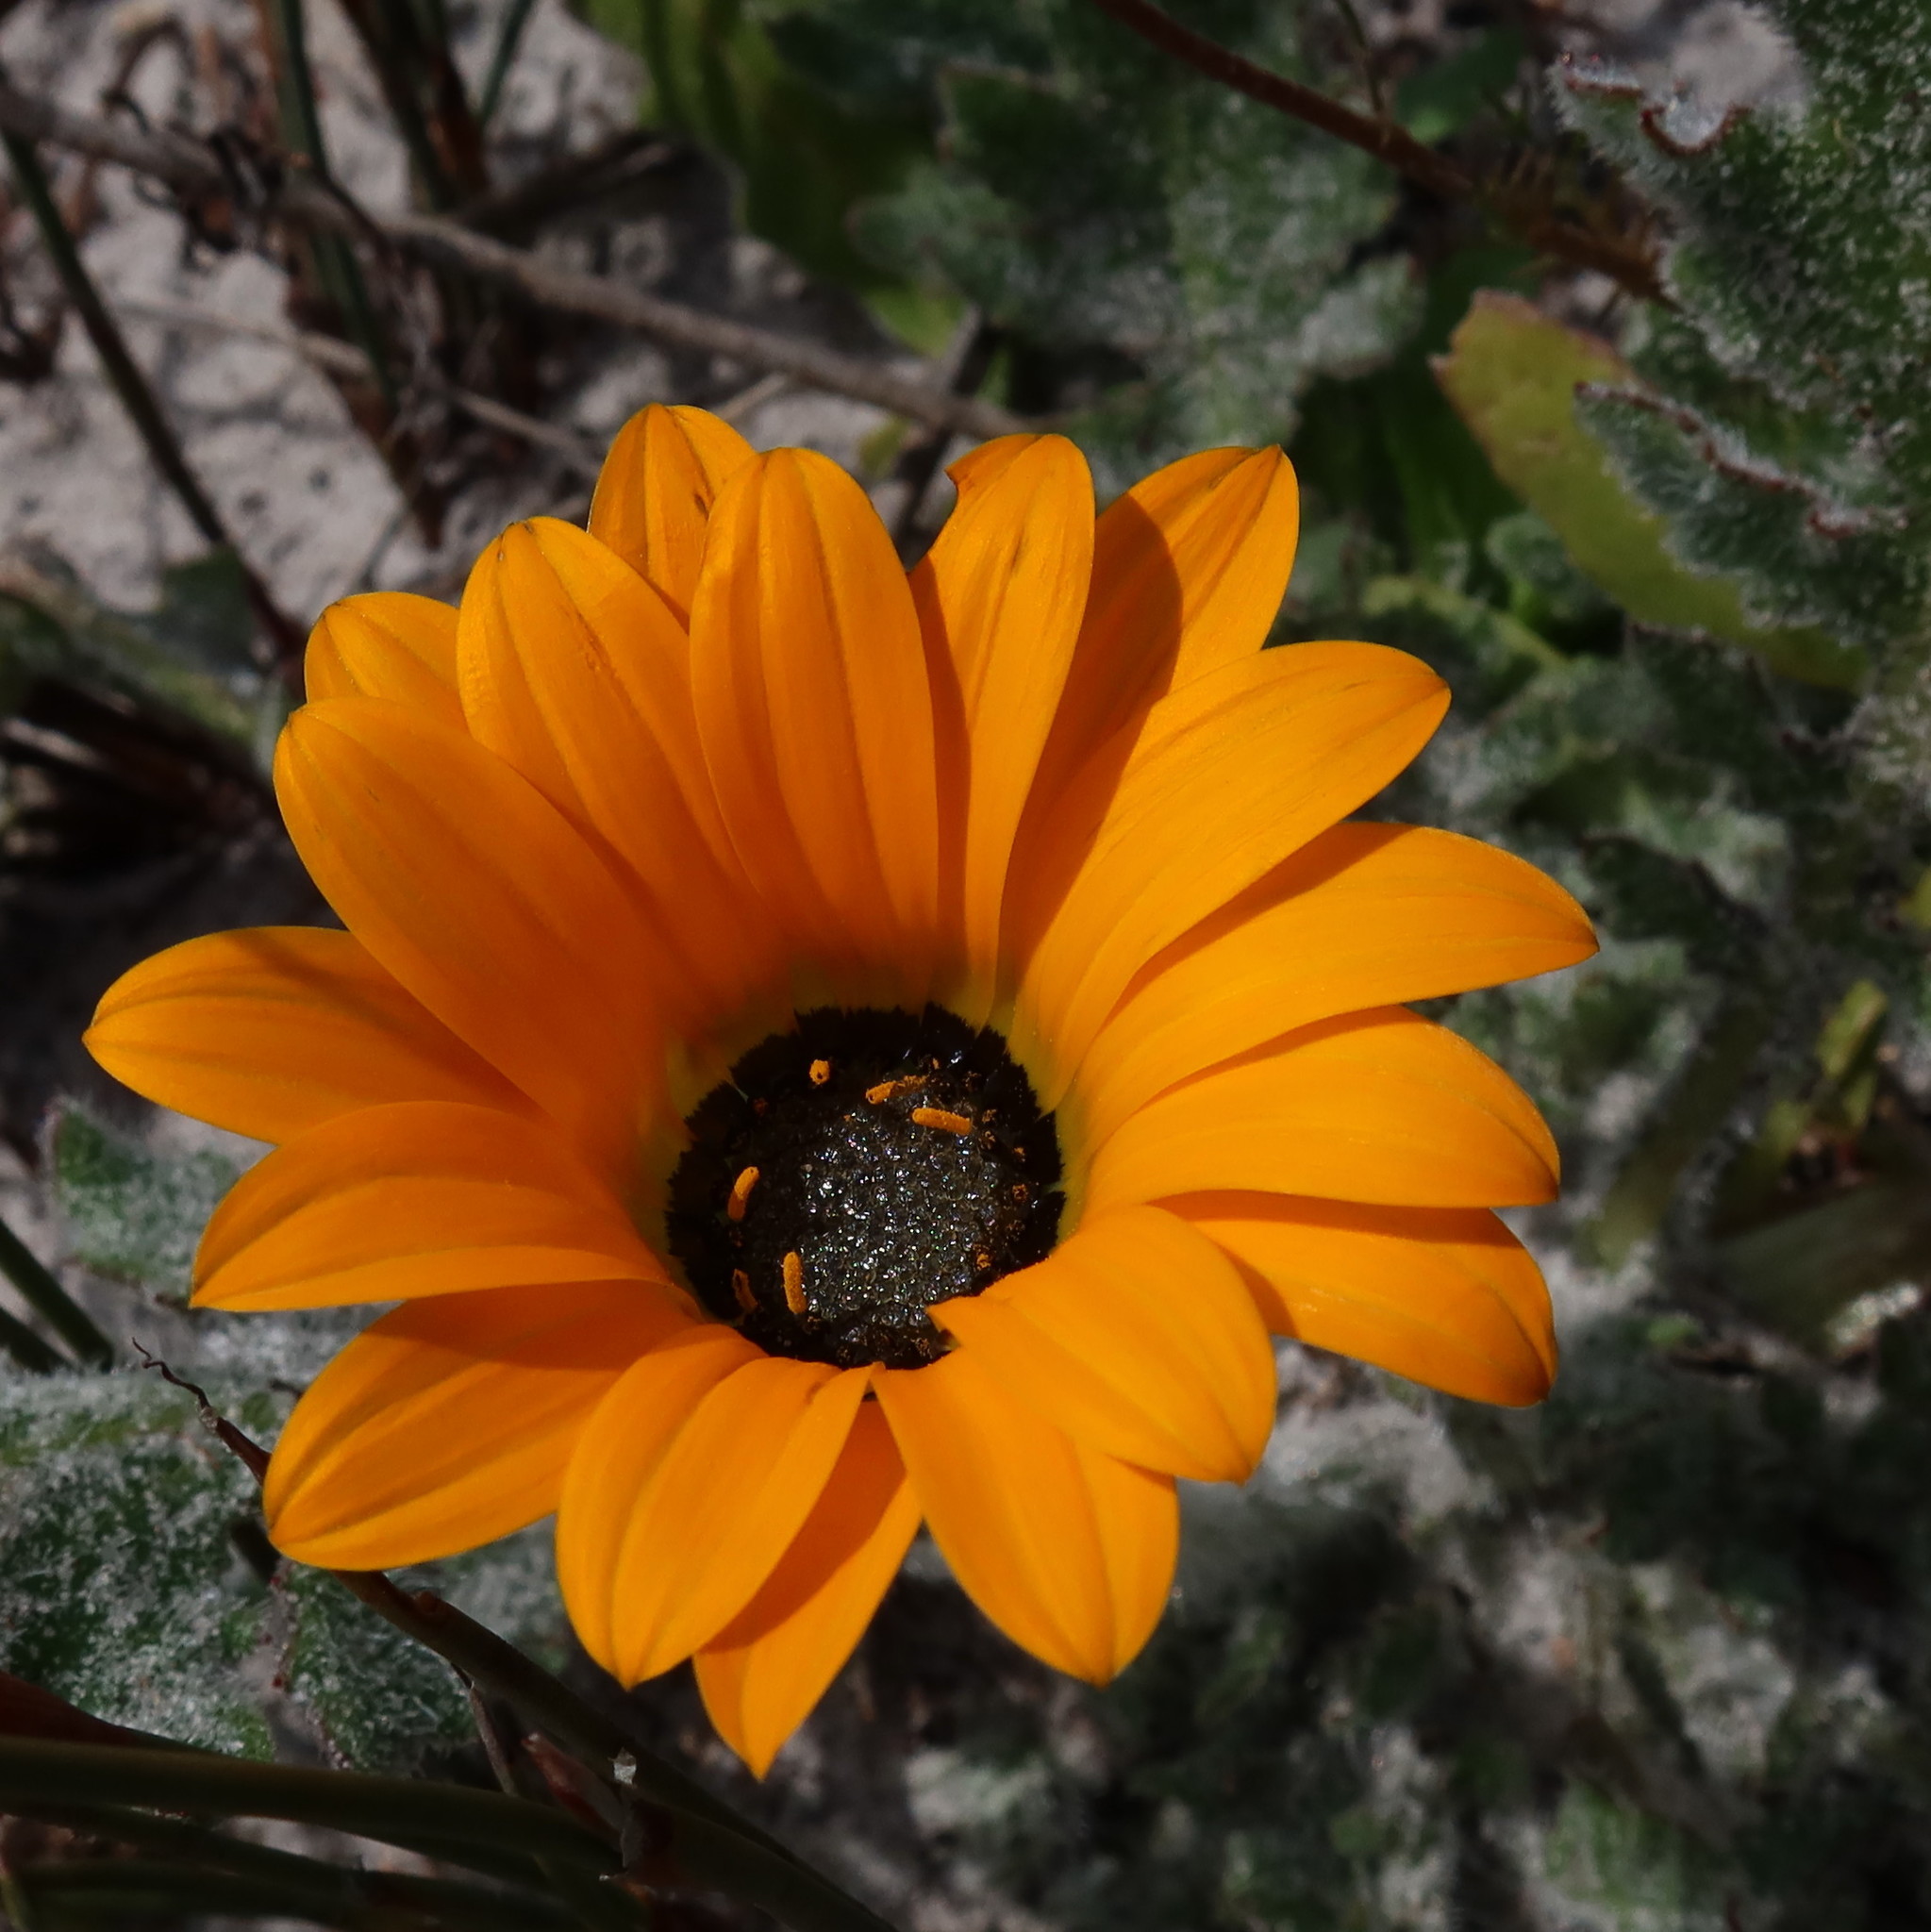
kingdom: Plantae
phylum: Tracheophyta
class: Magnoliopsida
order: Asterales
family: Asteraceae
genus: Arctotis
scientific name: Arctotis breviscapa
